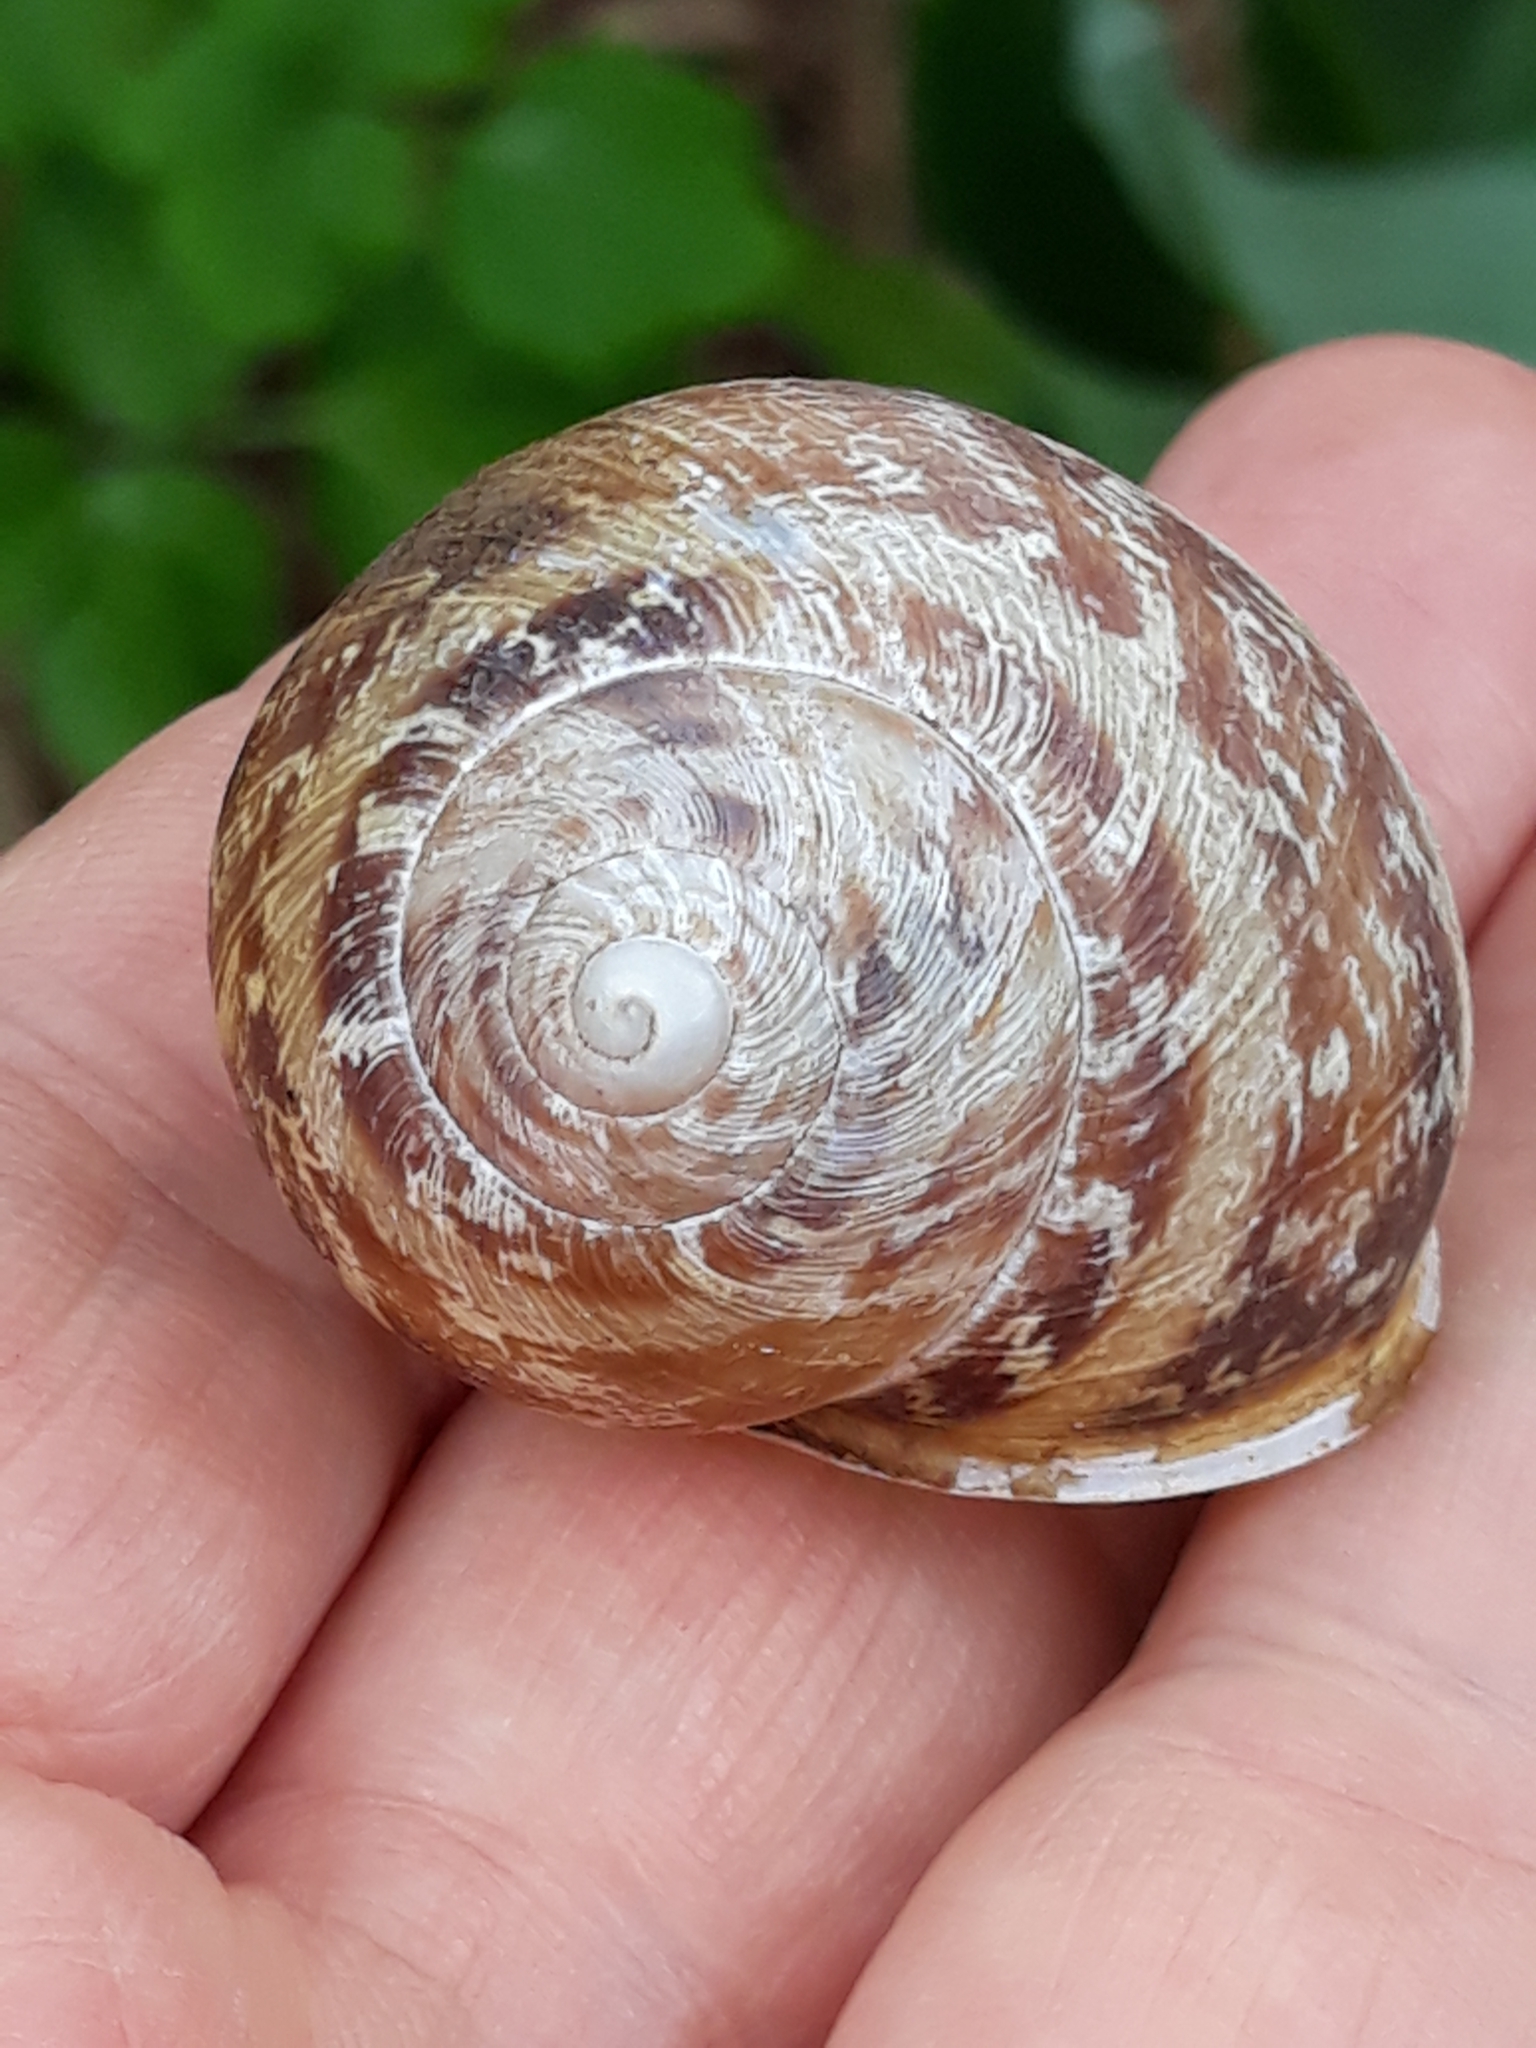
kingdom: Animalia
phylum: Mollusca
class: Gastropoda
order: Stylommatophora
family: Helicidae
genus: Cornu
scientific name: Cornu aspersum
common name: Brown garden snail
